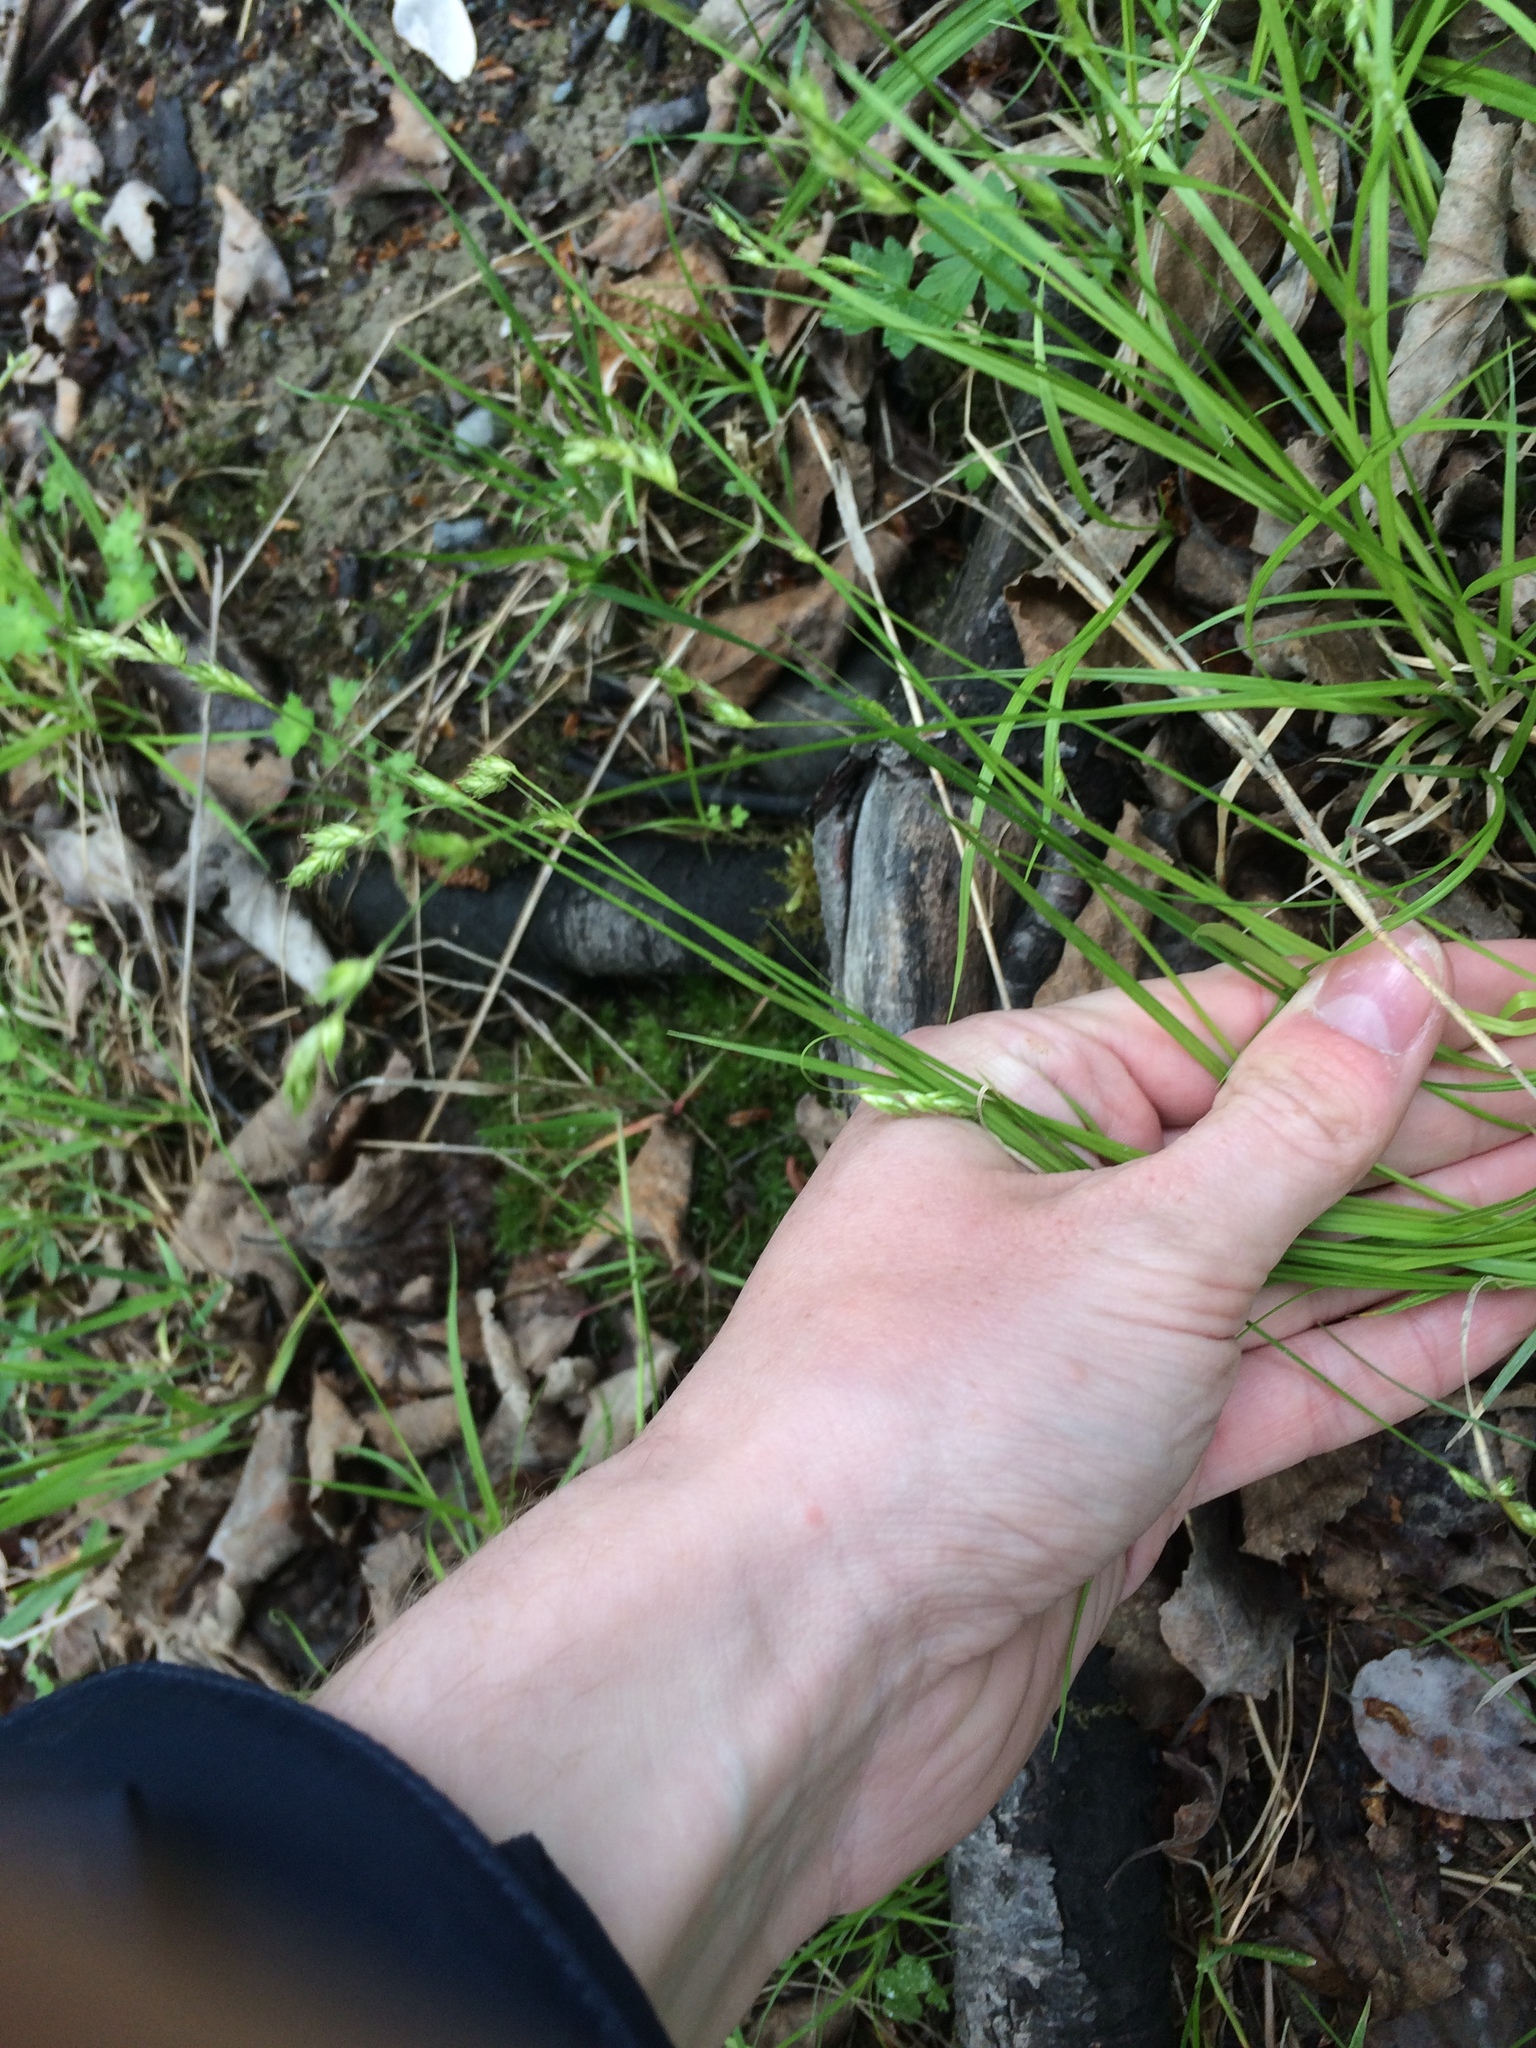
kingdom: Plantae
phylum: Tracheophyta
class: Liliopsida
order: Poales
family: Cyperaceae
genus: Carex
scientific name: Carex deweyana
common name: Dewey's sedge
